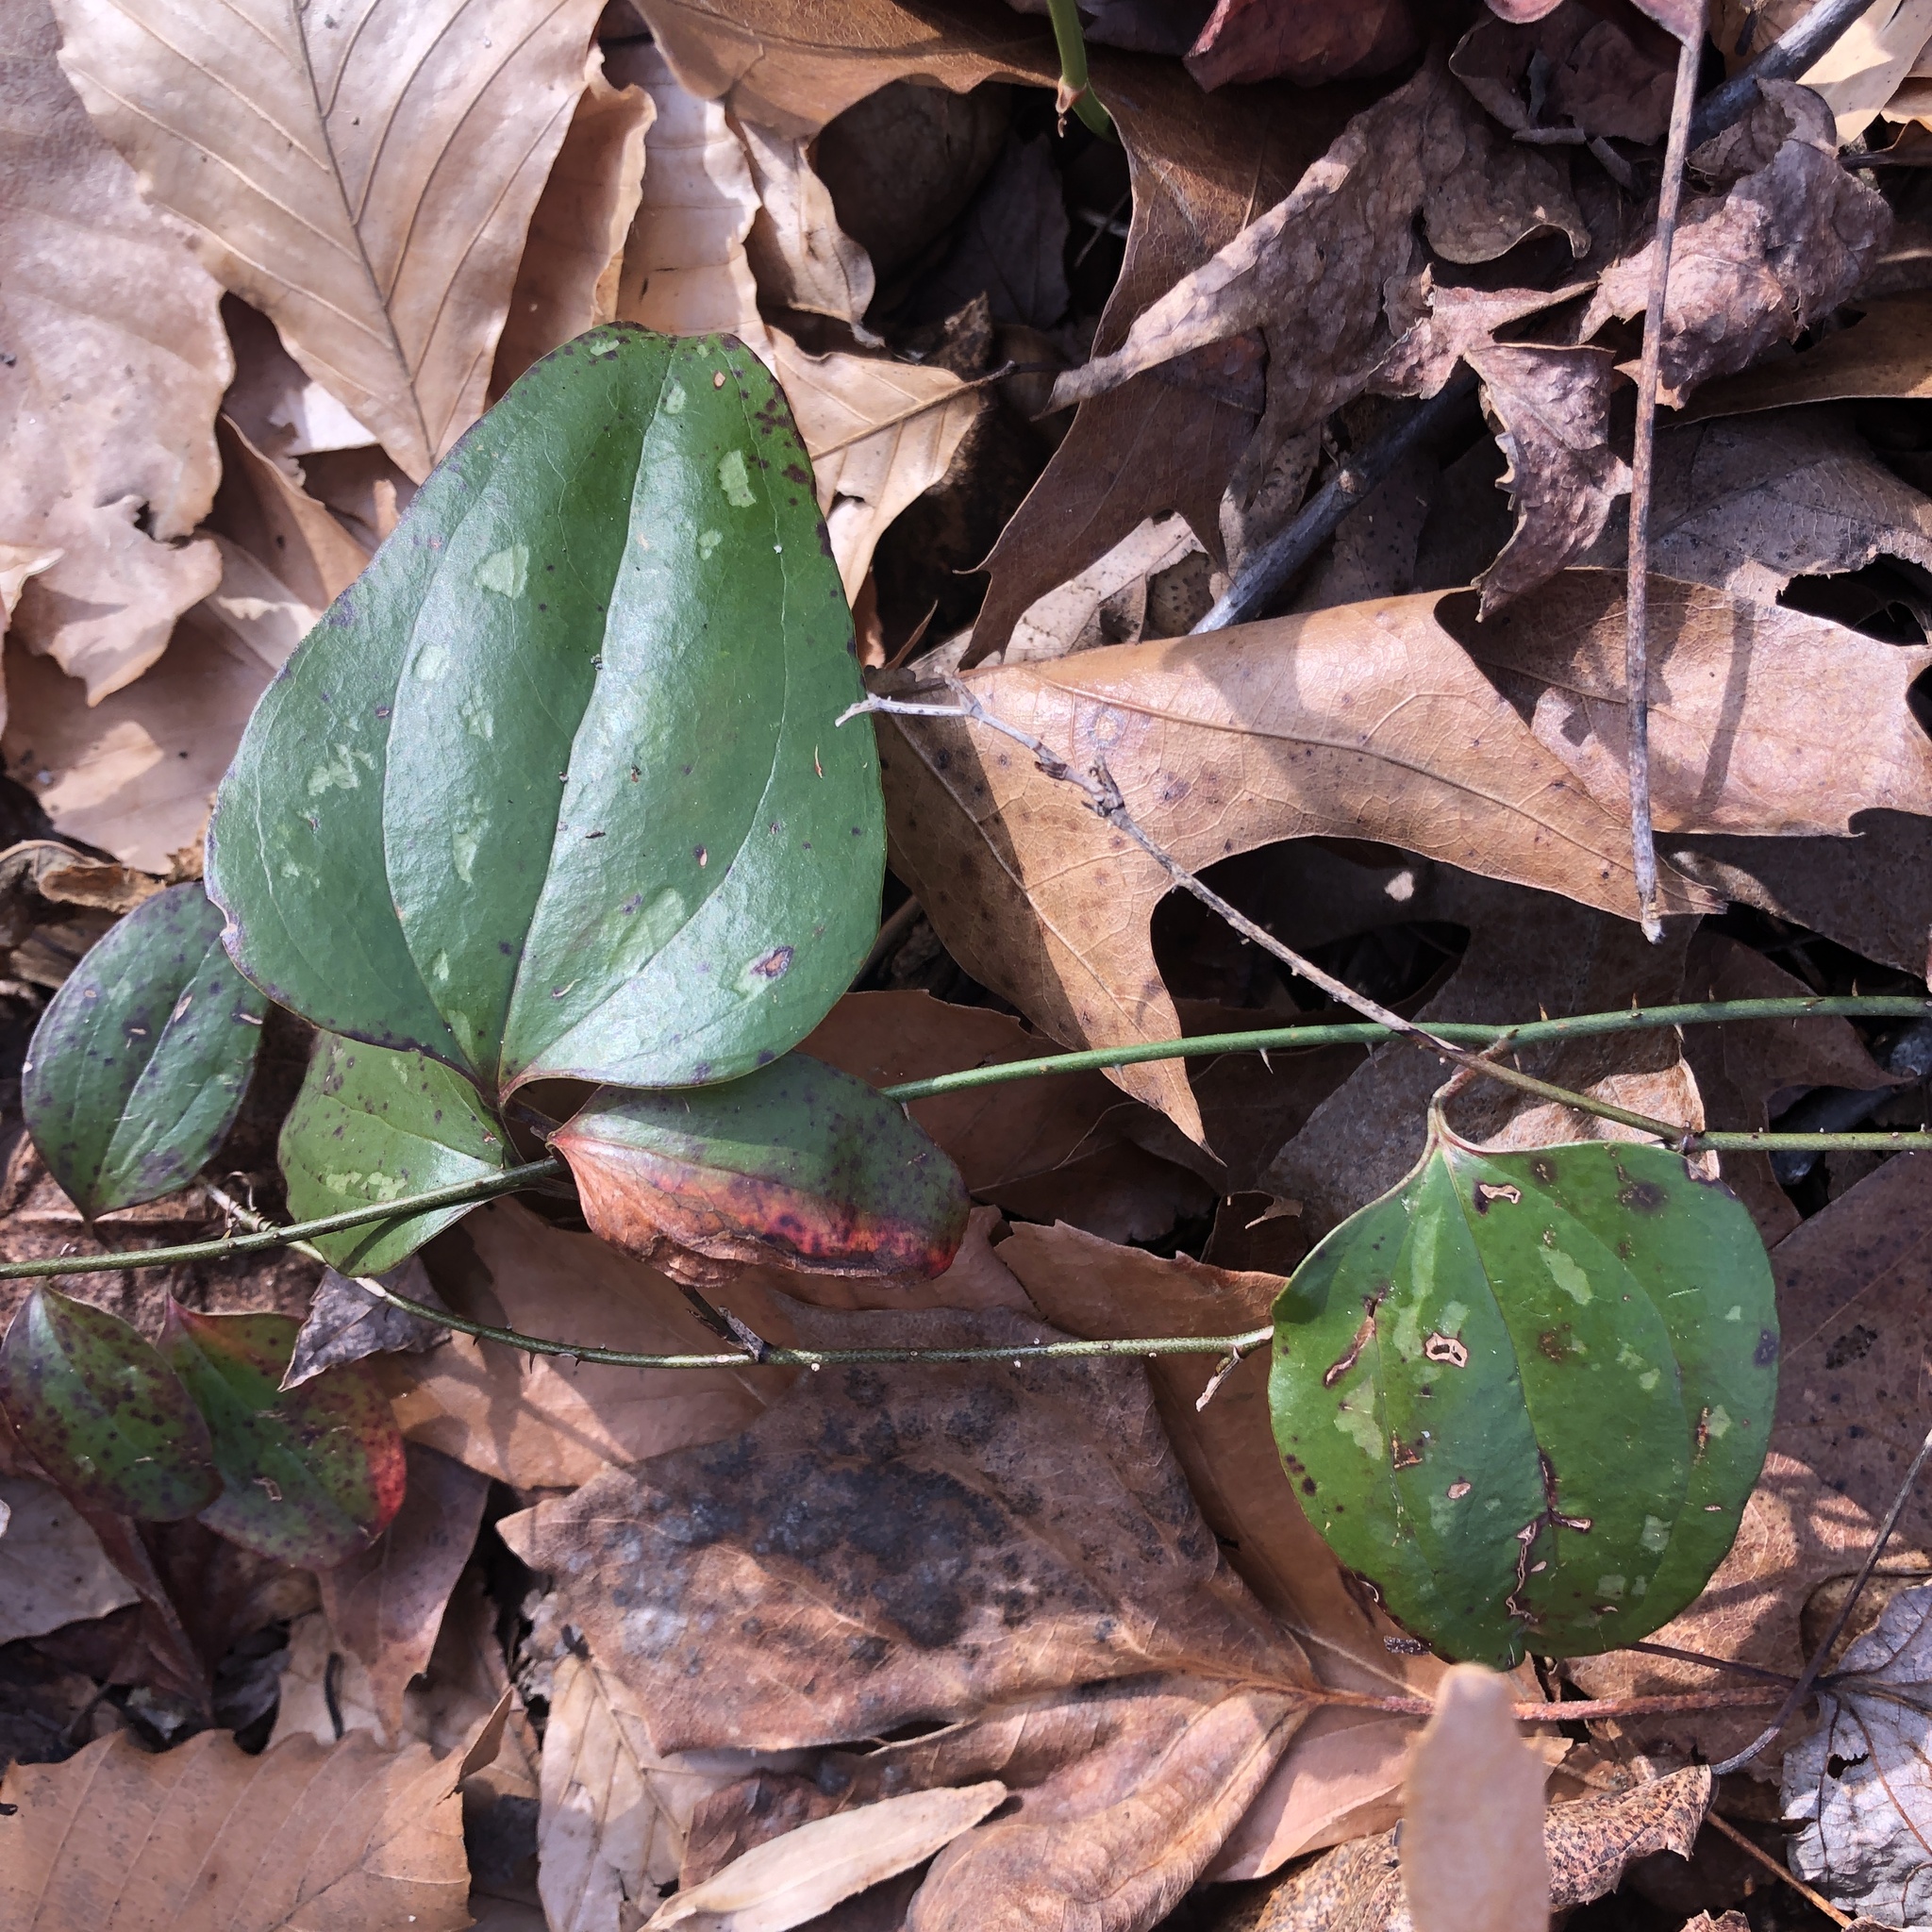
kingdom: Plantae
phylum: Tracheophyta
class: Liliopsida
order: Liliales
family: Smilacaceae
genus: Smilax
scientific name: Smilax glauca
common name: Cat greenbrier
